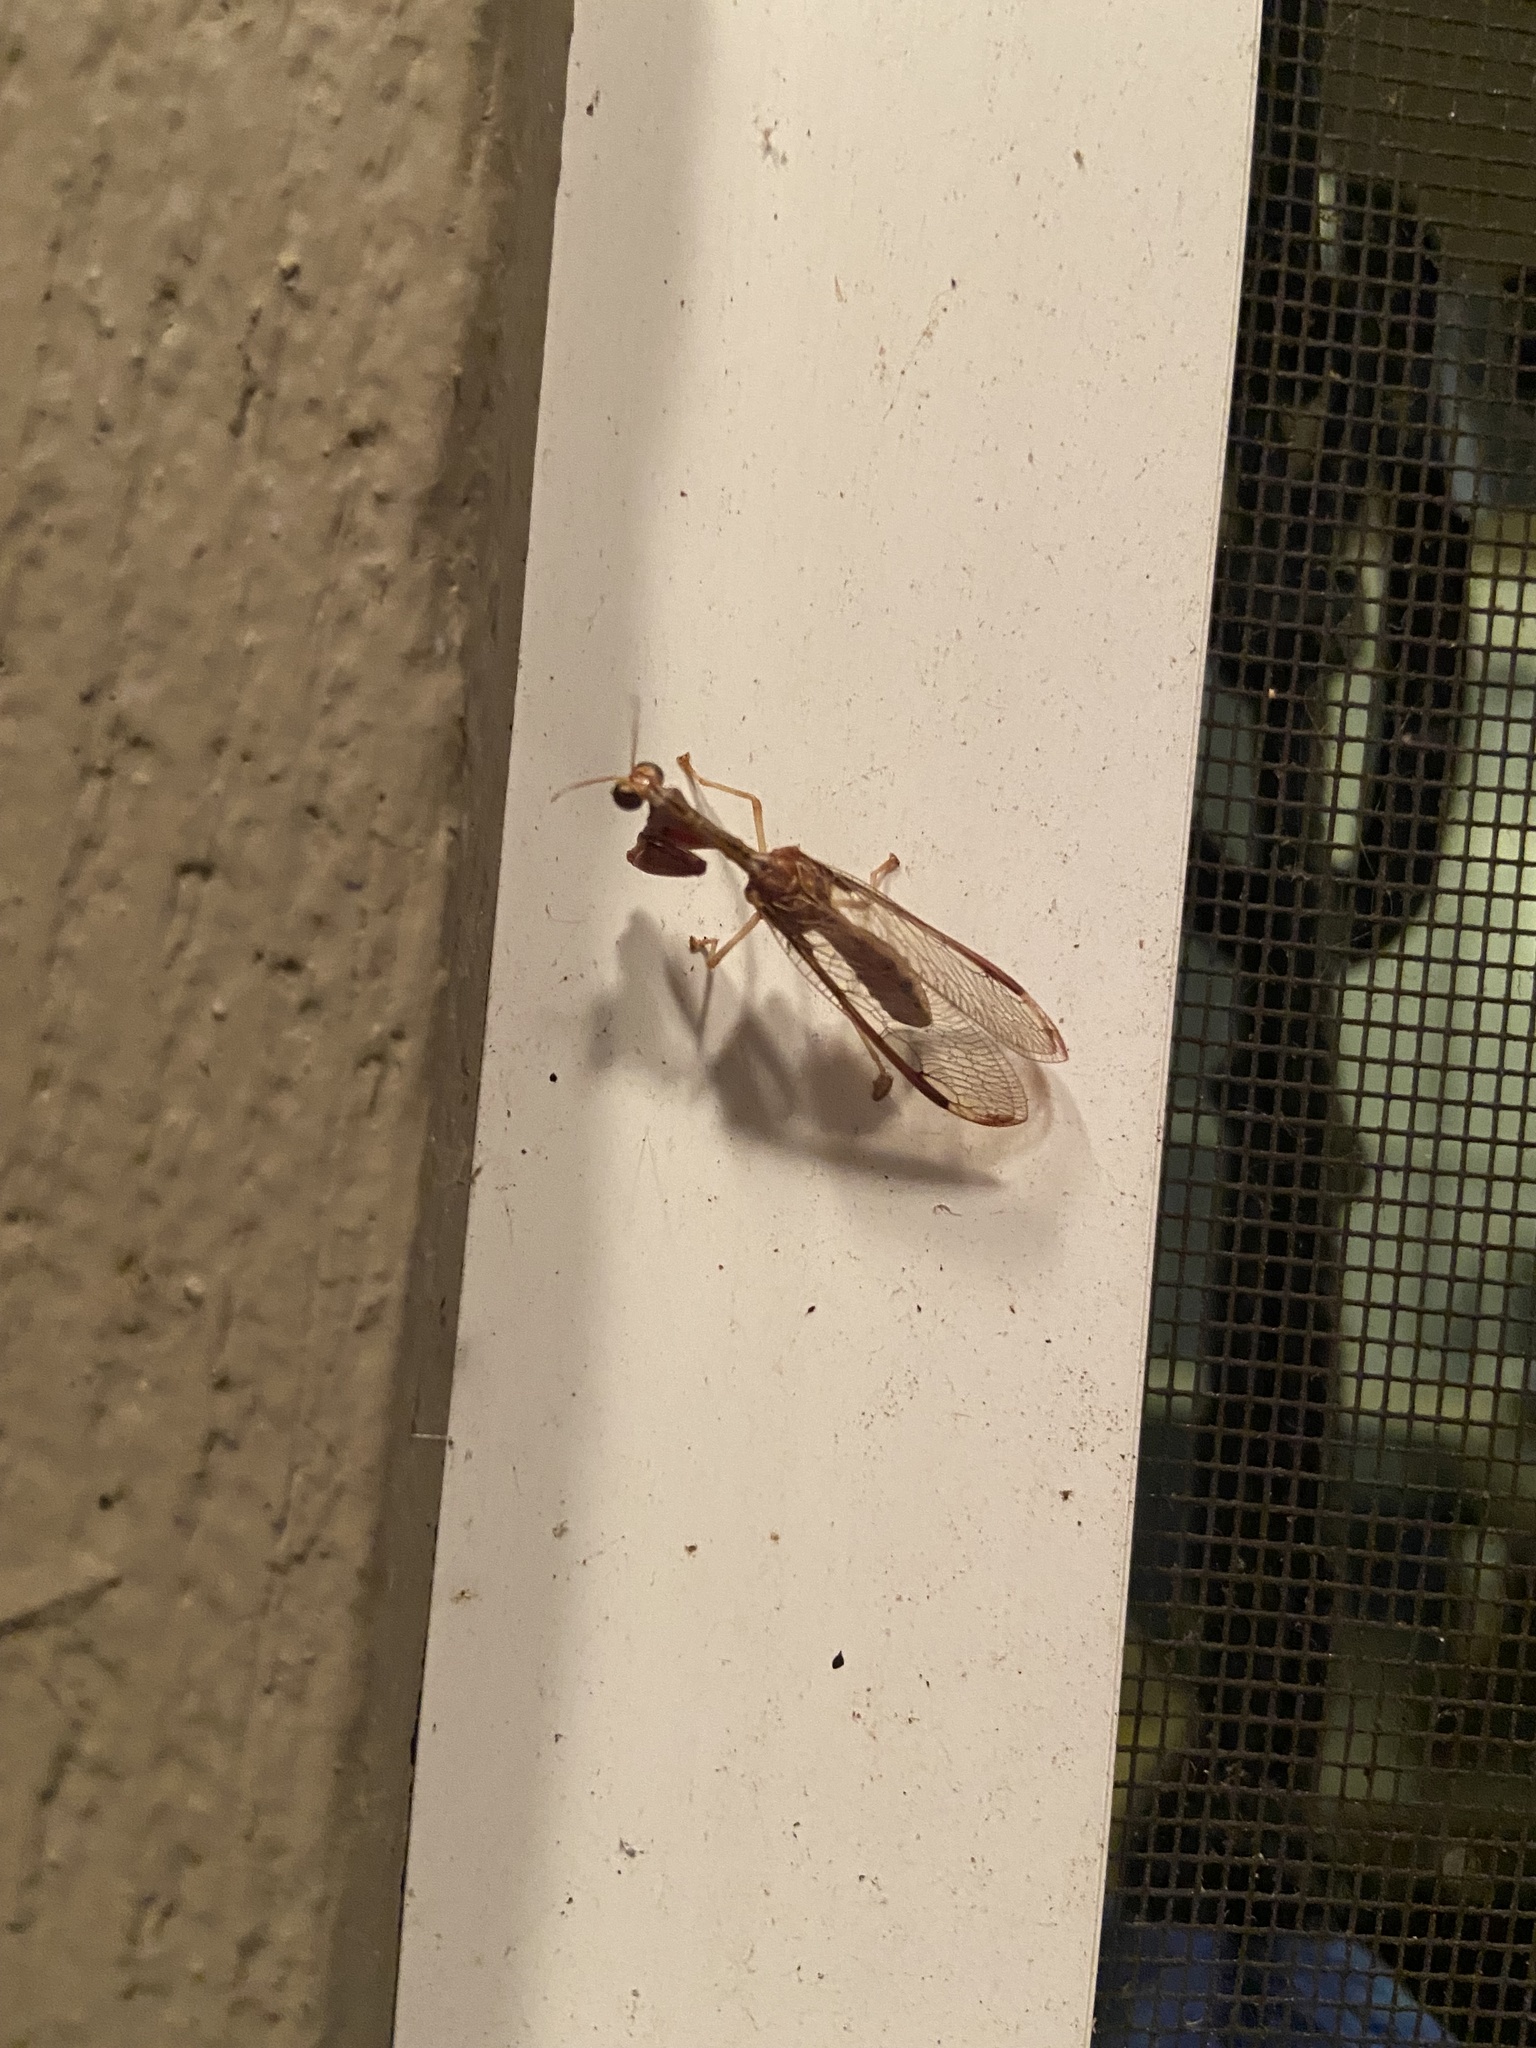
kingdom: Animalia
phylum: Arthropoda
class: Insecta
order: Neuroptera
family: Mantispidae
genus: Dicromantispa
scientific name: Dicromantispa interrupta
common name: Four-spotted mantidfly
